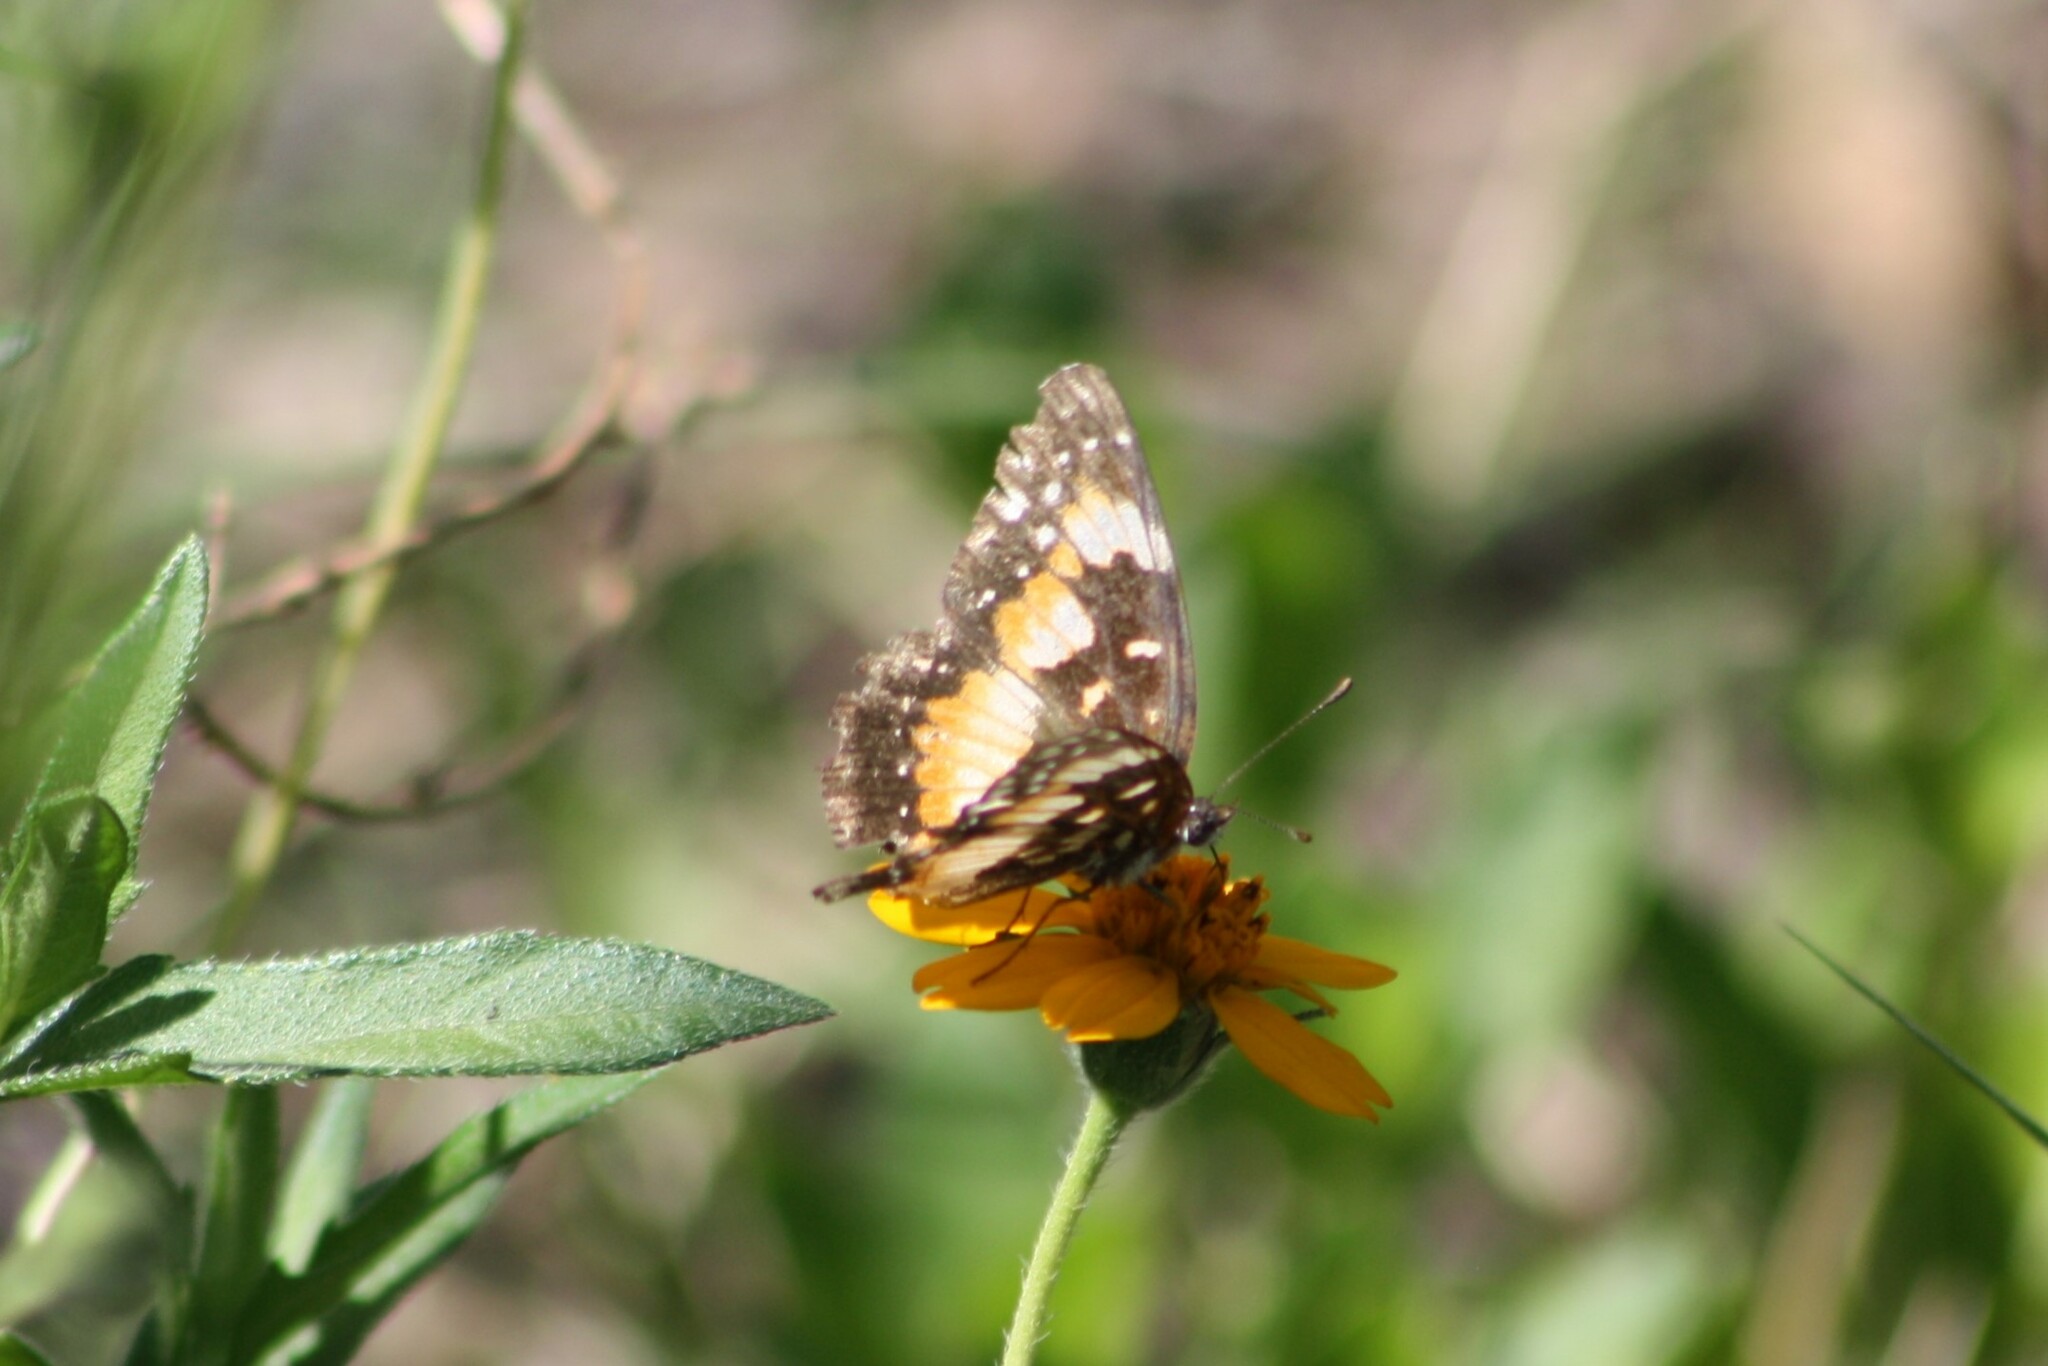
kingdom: Animalia
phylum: Arthropoda
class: Insecta
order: Lepidoptera
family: Nymphalidae
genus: Chlosyne
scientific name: Chlosyne lacinia
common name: Bordered patch
